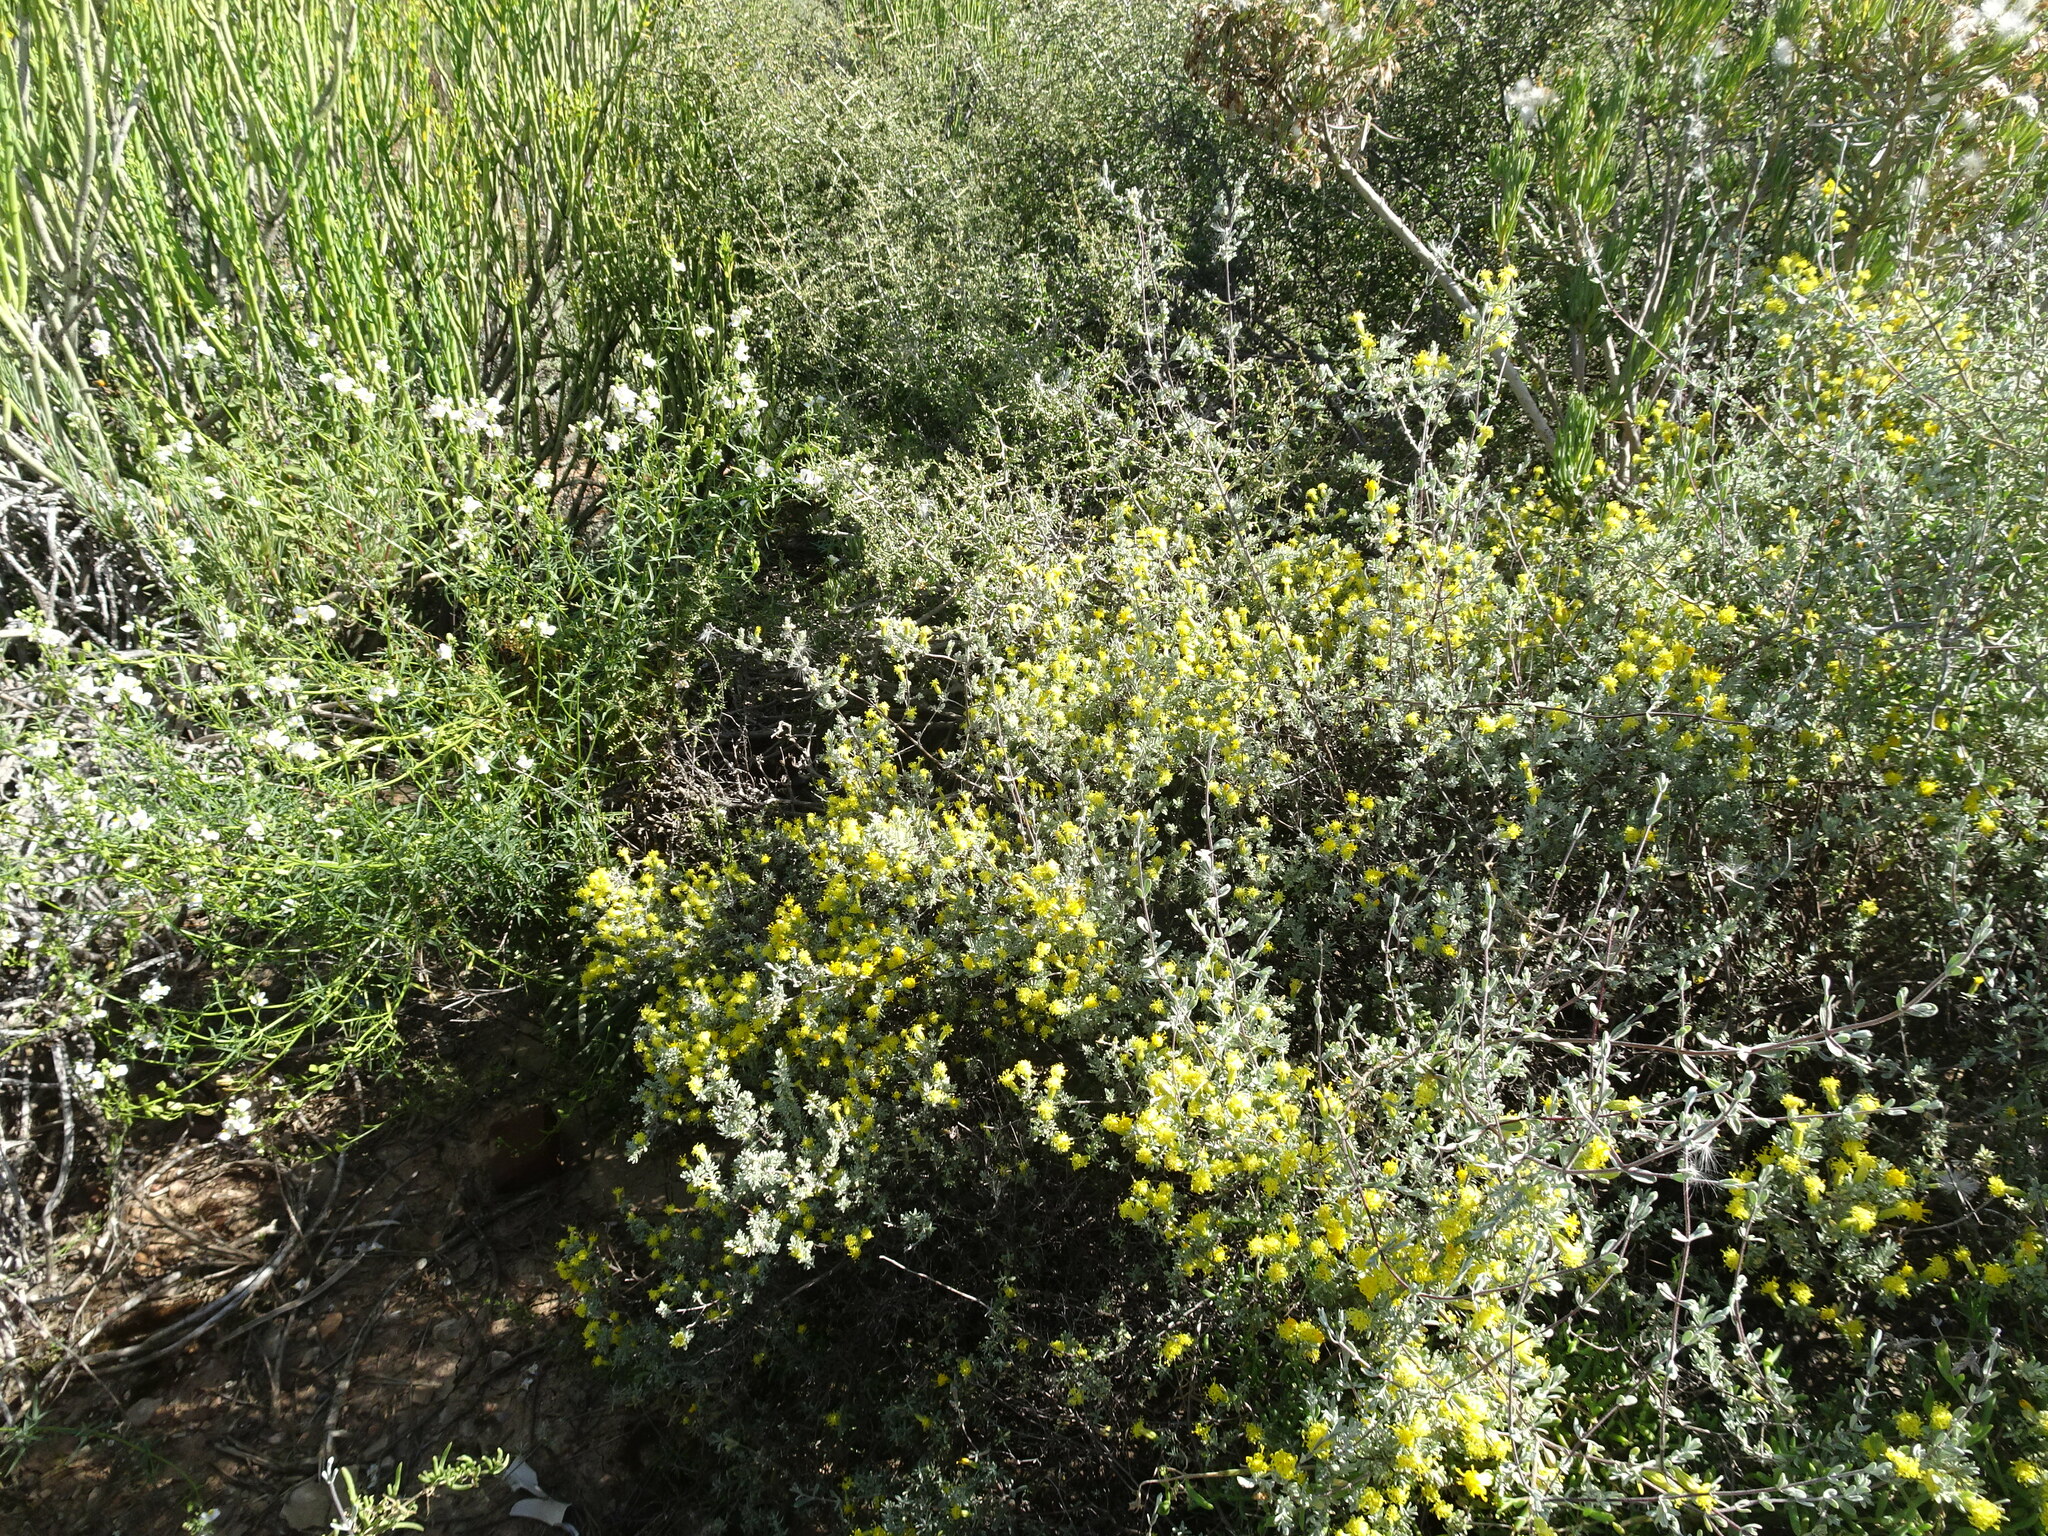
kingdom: Plantae
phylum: Tracheophyta
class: Magnoliopsida
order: Asterales
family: Asteraceae
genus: Pteronia
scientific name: Pteronia incana
